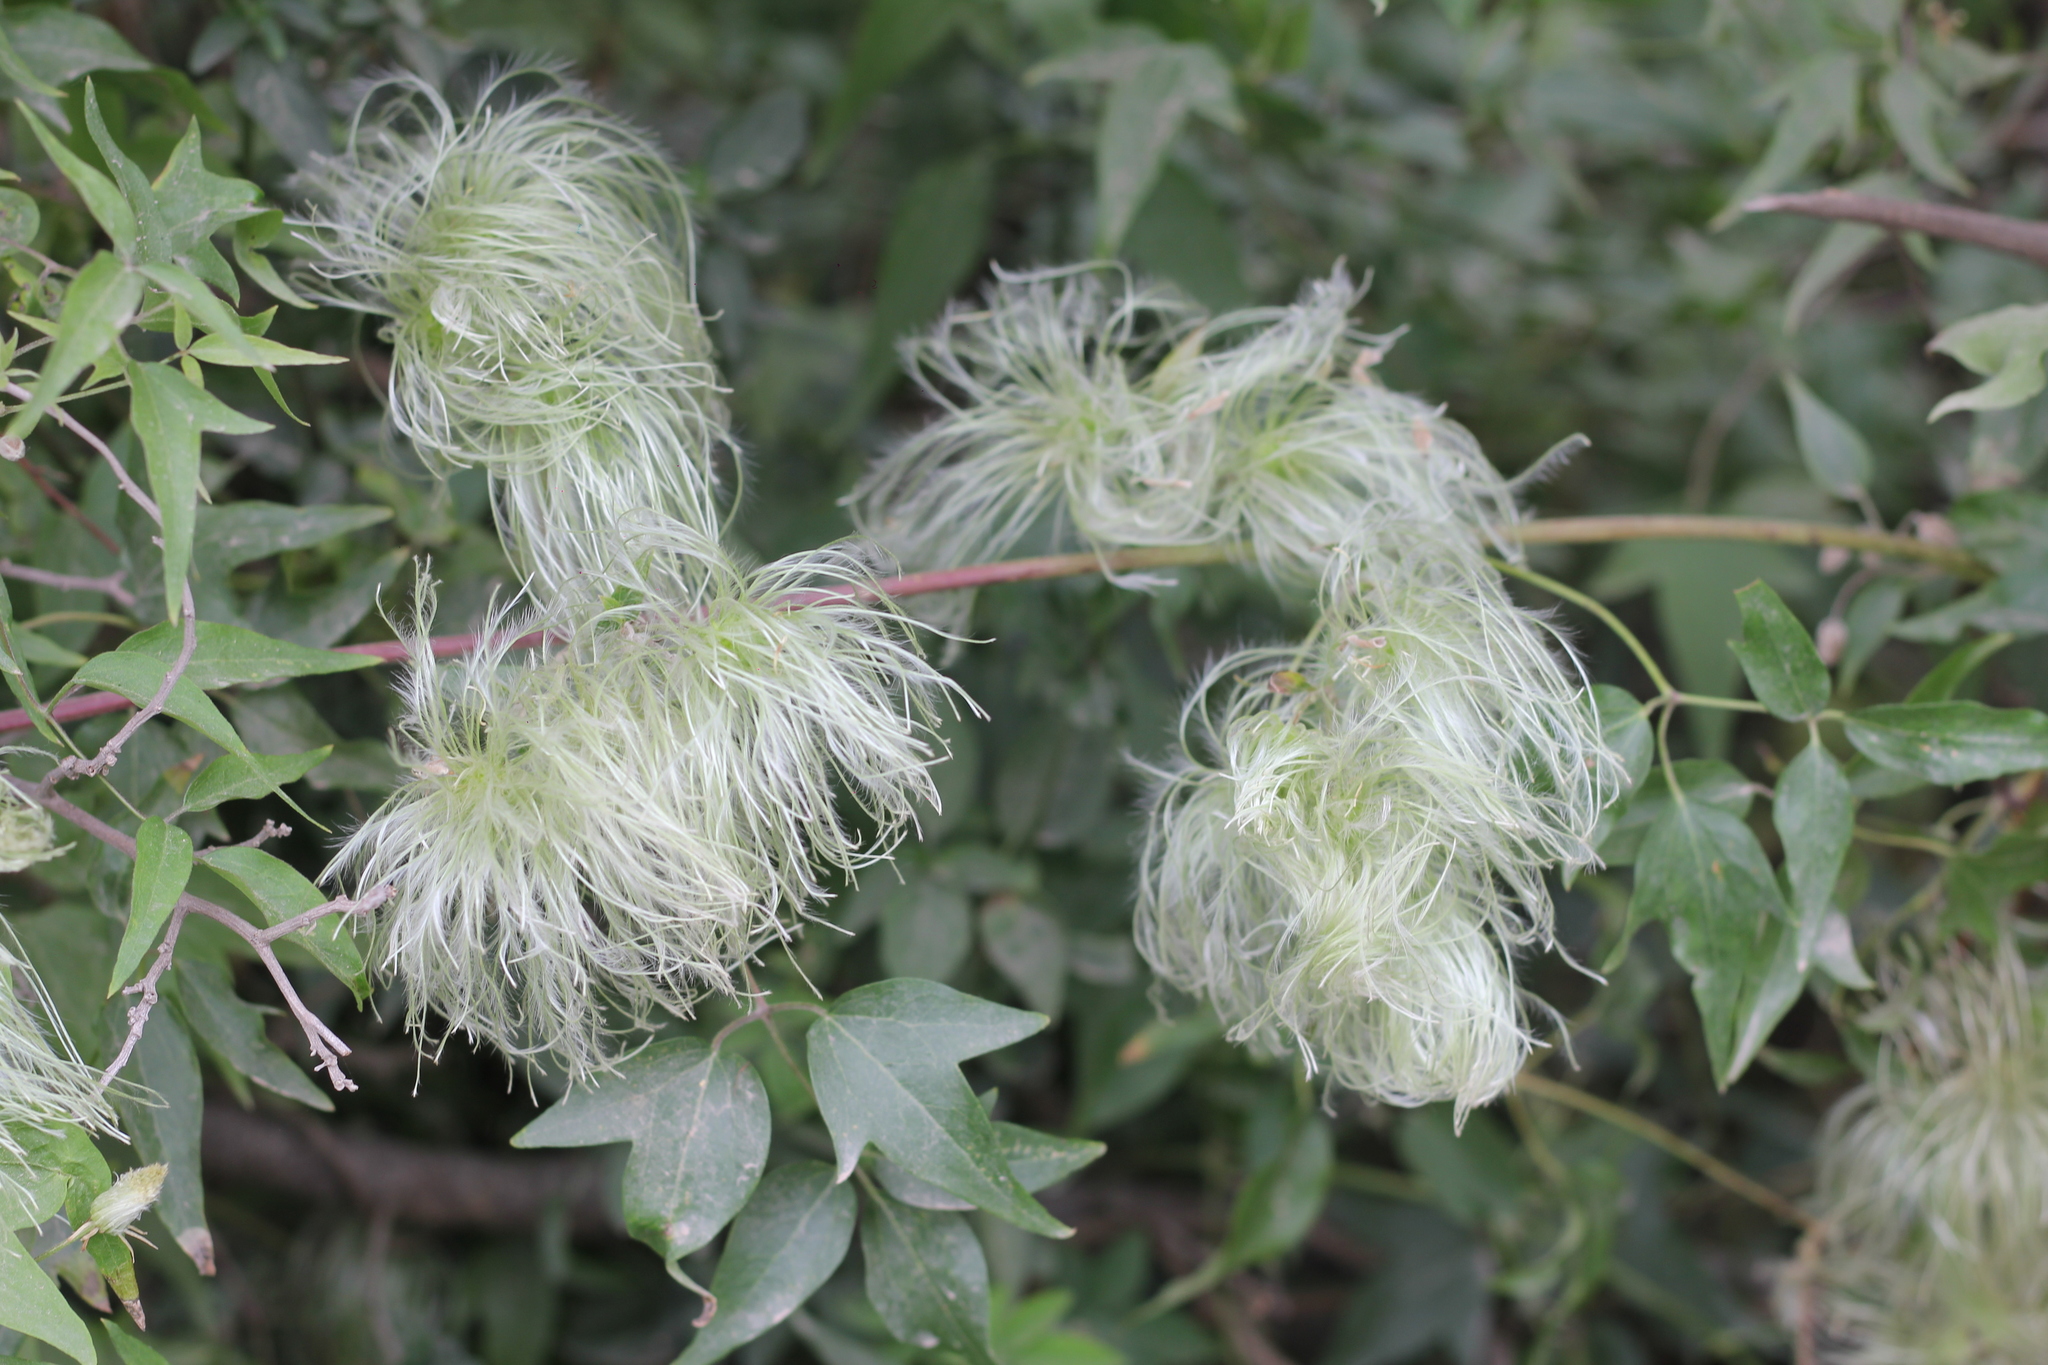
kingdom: Plantae
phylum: Tracheophyta
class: Magnoliopsida
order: Ranunculales
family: Ranunculaceae
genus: Clematis
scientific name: Clematis montevidensis
